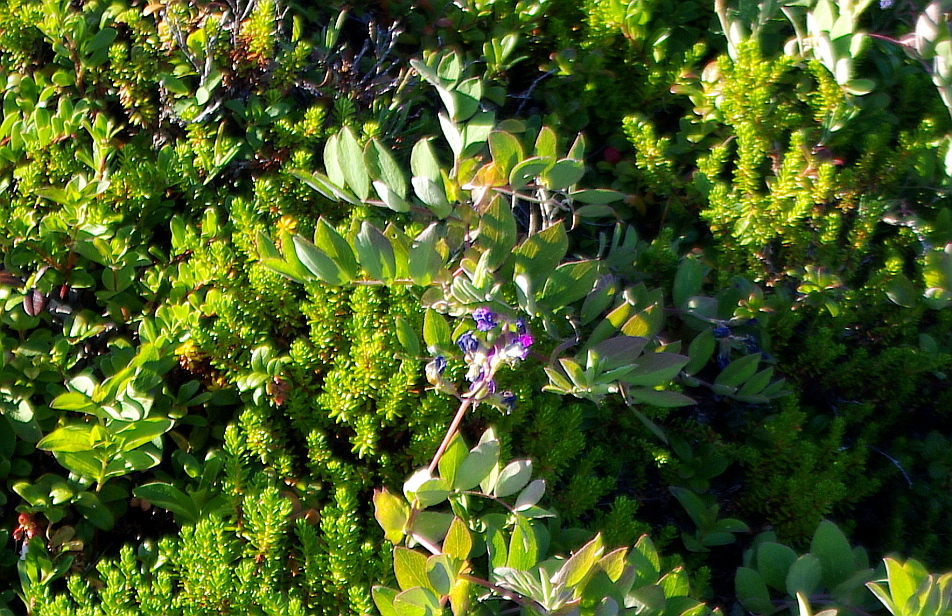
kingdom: Plantae
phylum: Tracheophyta
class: Magnoliopsida
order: Fabales
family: Fabaceae
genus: Lathyrus
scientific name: Lathyrus japonicus
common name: Sea pea
